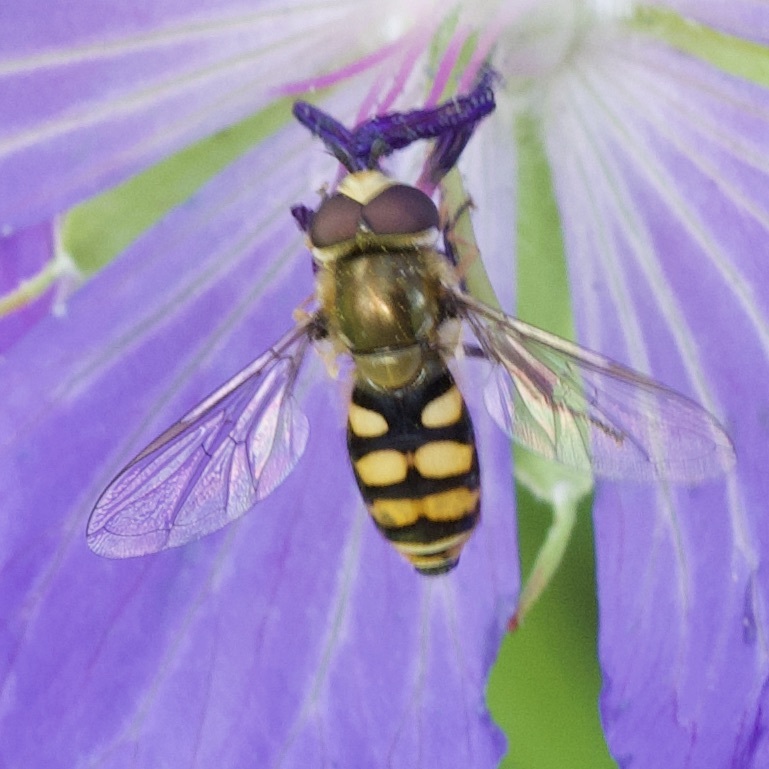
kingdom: Animalia
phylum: Arthropoda
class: Insecta
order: Diptera
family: Syrphidae
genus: Eupeodes
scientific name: Eupeodes corollae
